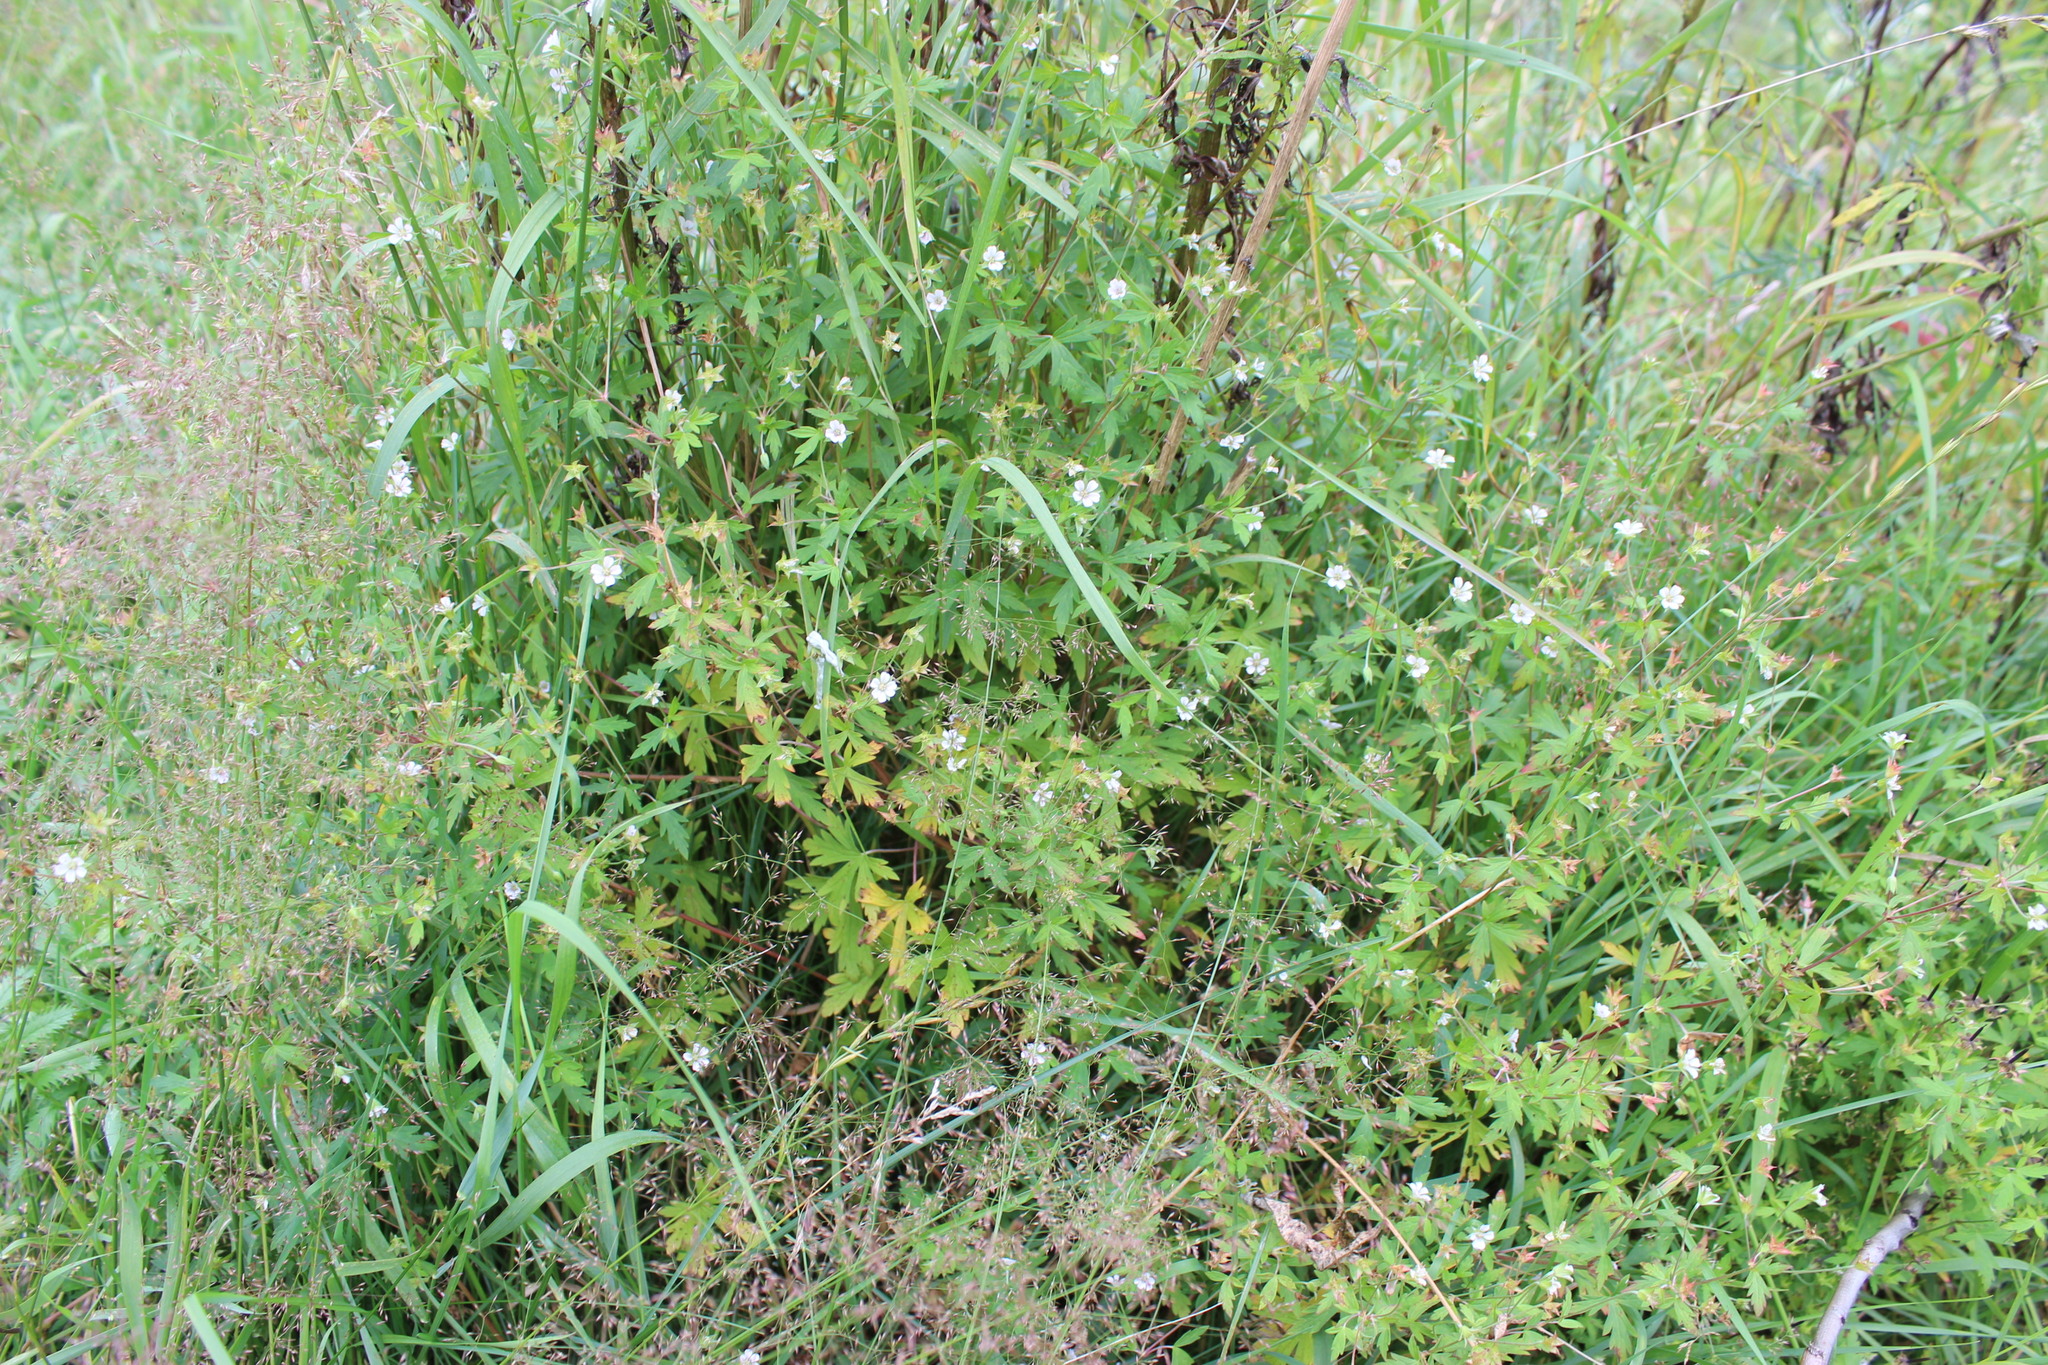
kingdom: Plantae
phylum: Tracheophyta
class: Magnoliopsida
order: Geraniales
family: Geraniaceae
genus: Geranium
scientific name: Geranium sibiricum
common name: Siberian crane's-bill
